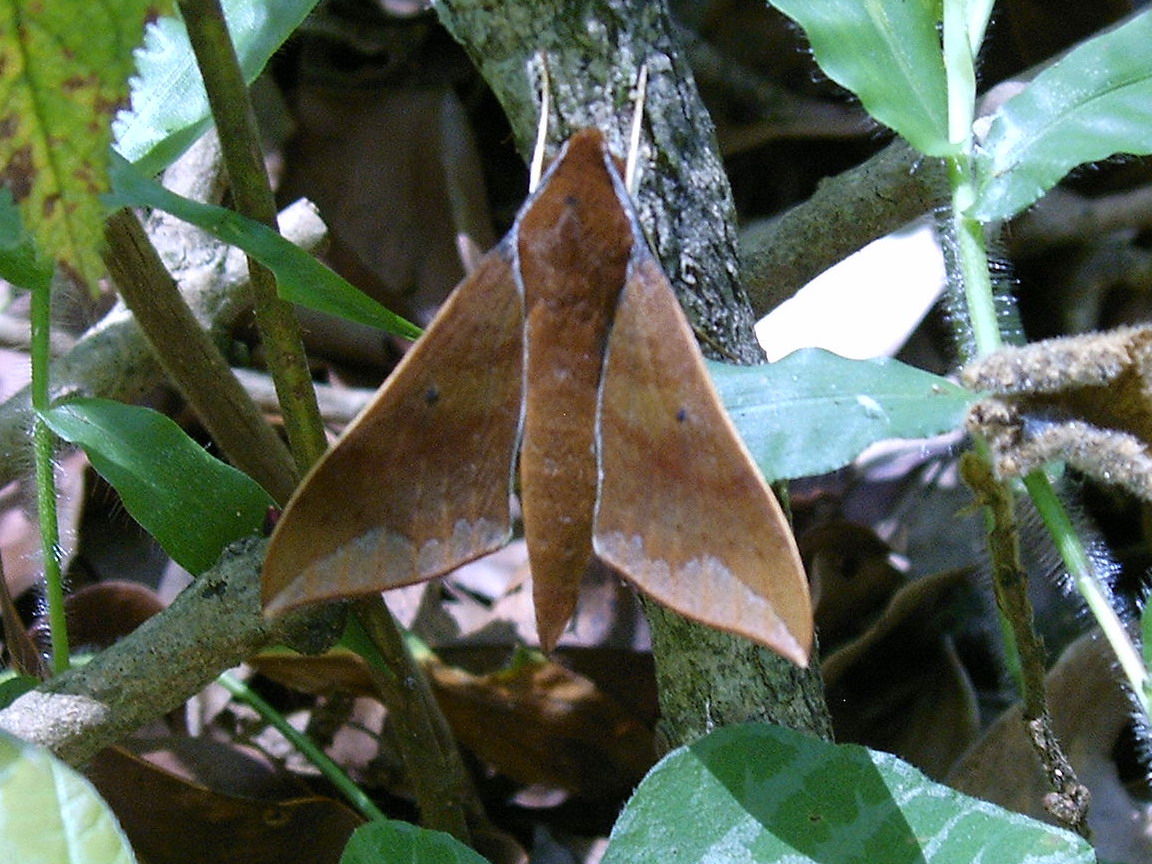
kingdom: Animalia
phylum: Arthropoda
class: Insecta
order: Lepidoptera
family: Sphingidae
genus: Rhagastis
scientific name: Rhagastis olivacea
